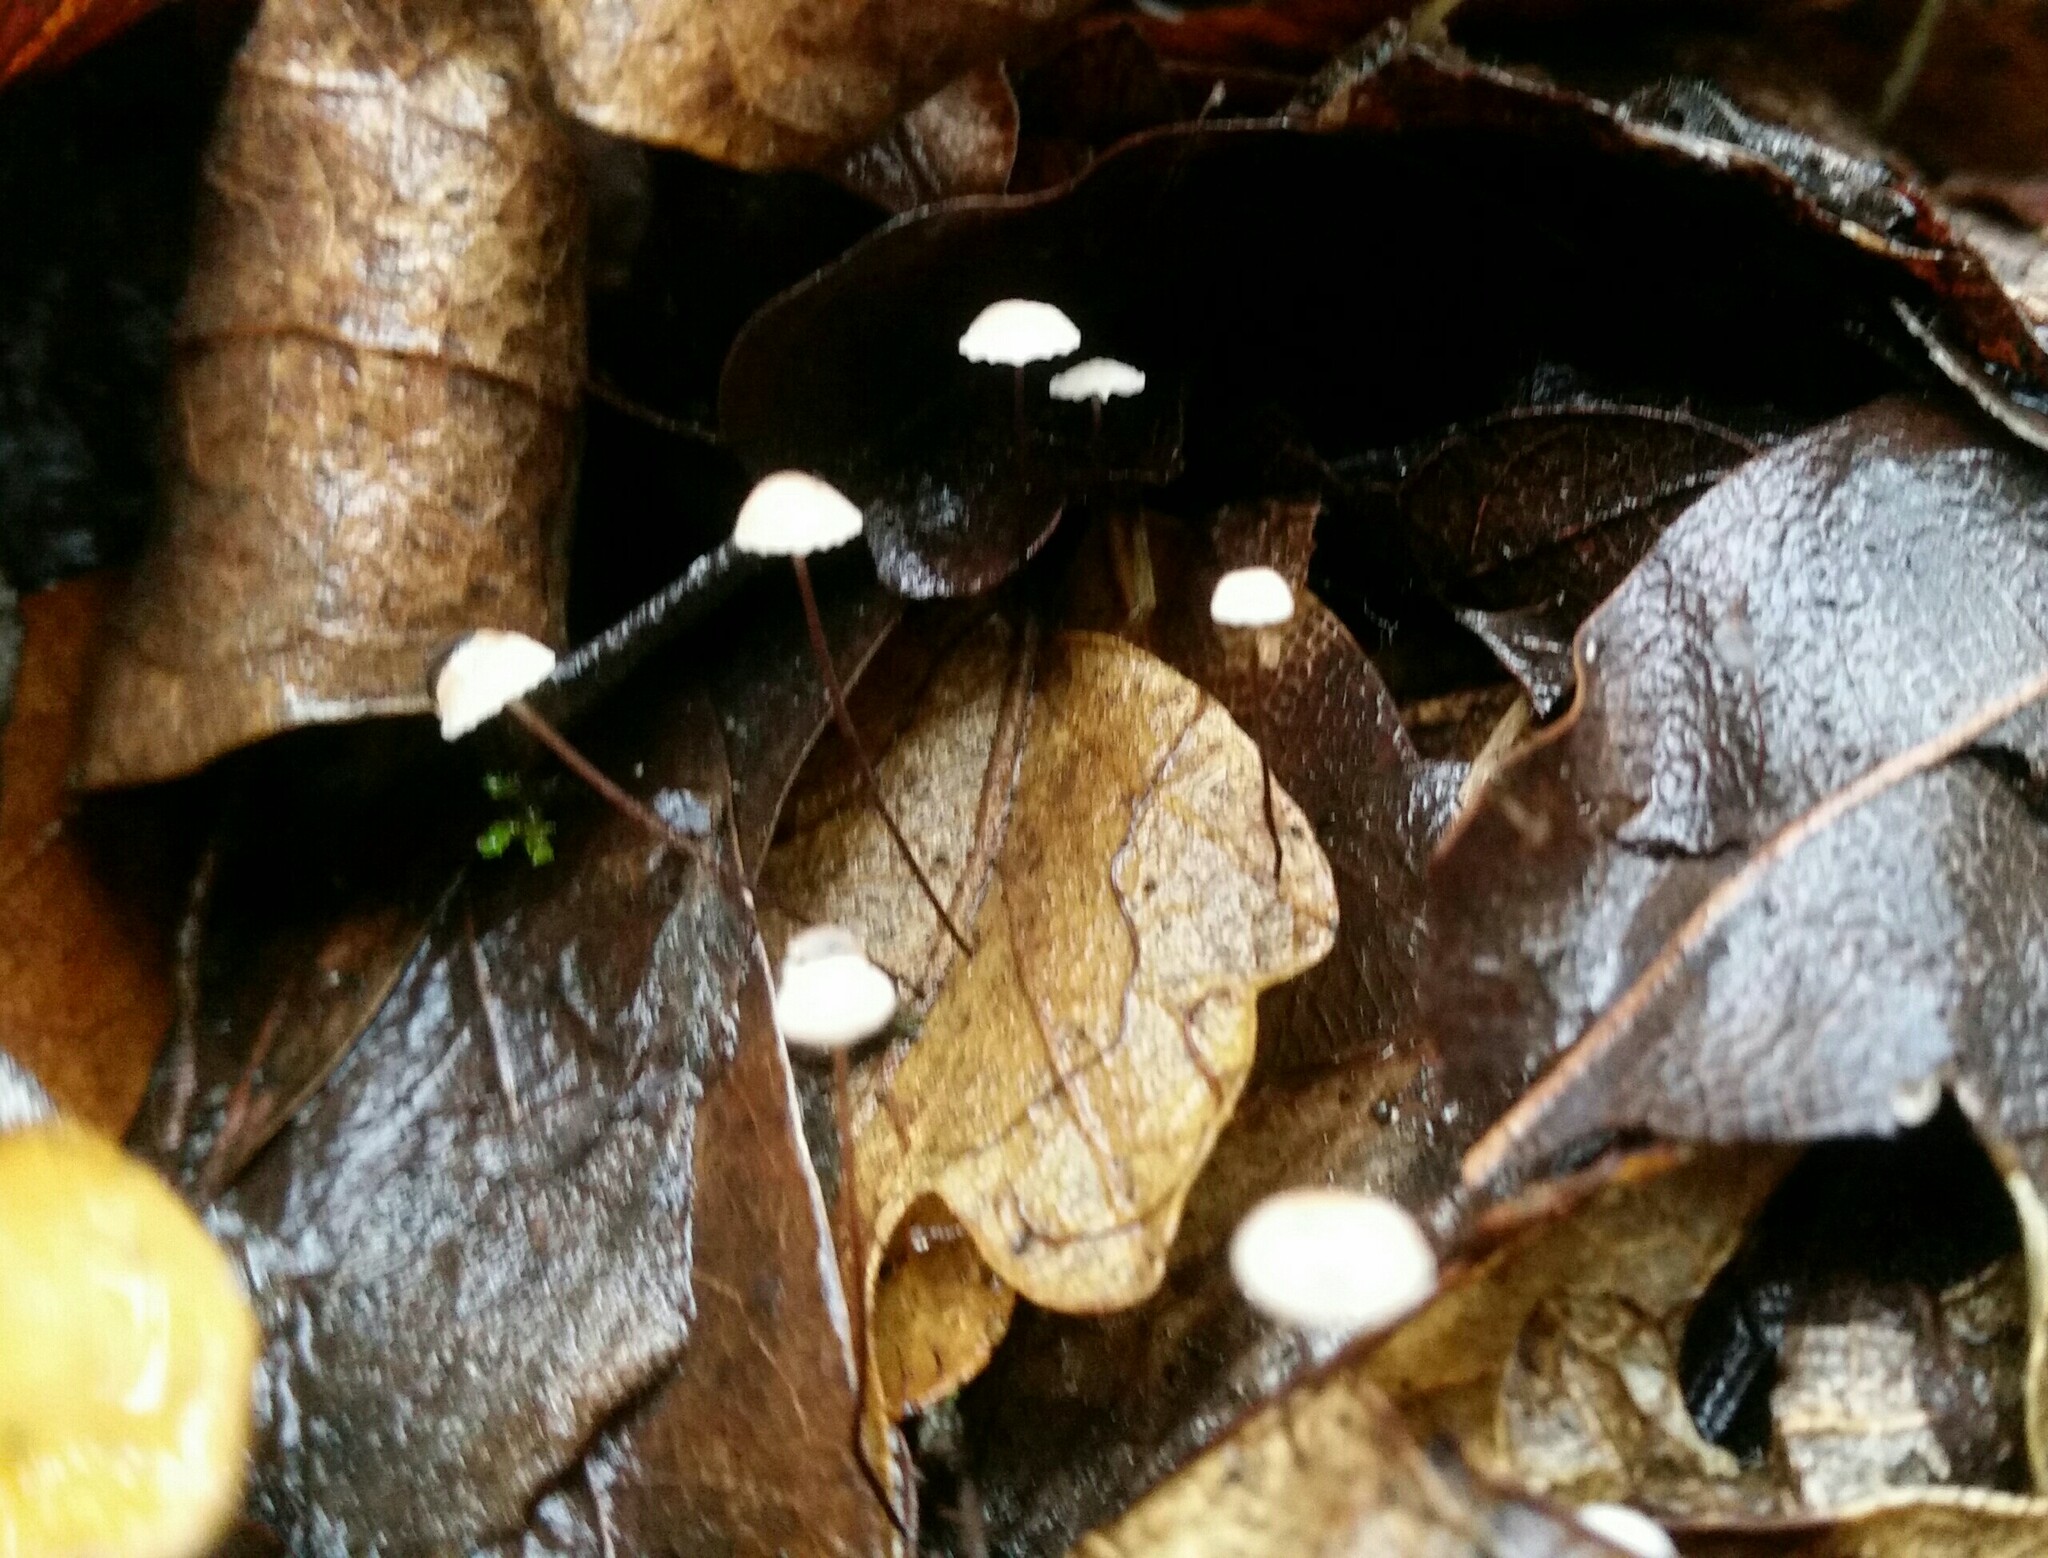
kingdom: Fungi
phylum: Basidiomycota
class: Agaricomycetes
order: Agaricales
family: Omphalotaceae
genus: Collybiopsis
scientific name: Collybiopsis quercophila
